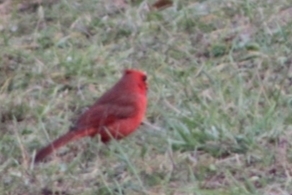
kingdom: Animalia
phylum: Chordata
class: Aves
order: Passeriformes
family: Cardinalidae
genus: Cardinalis
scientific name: Cardinalis cardinalis
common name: Northern cardinal
